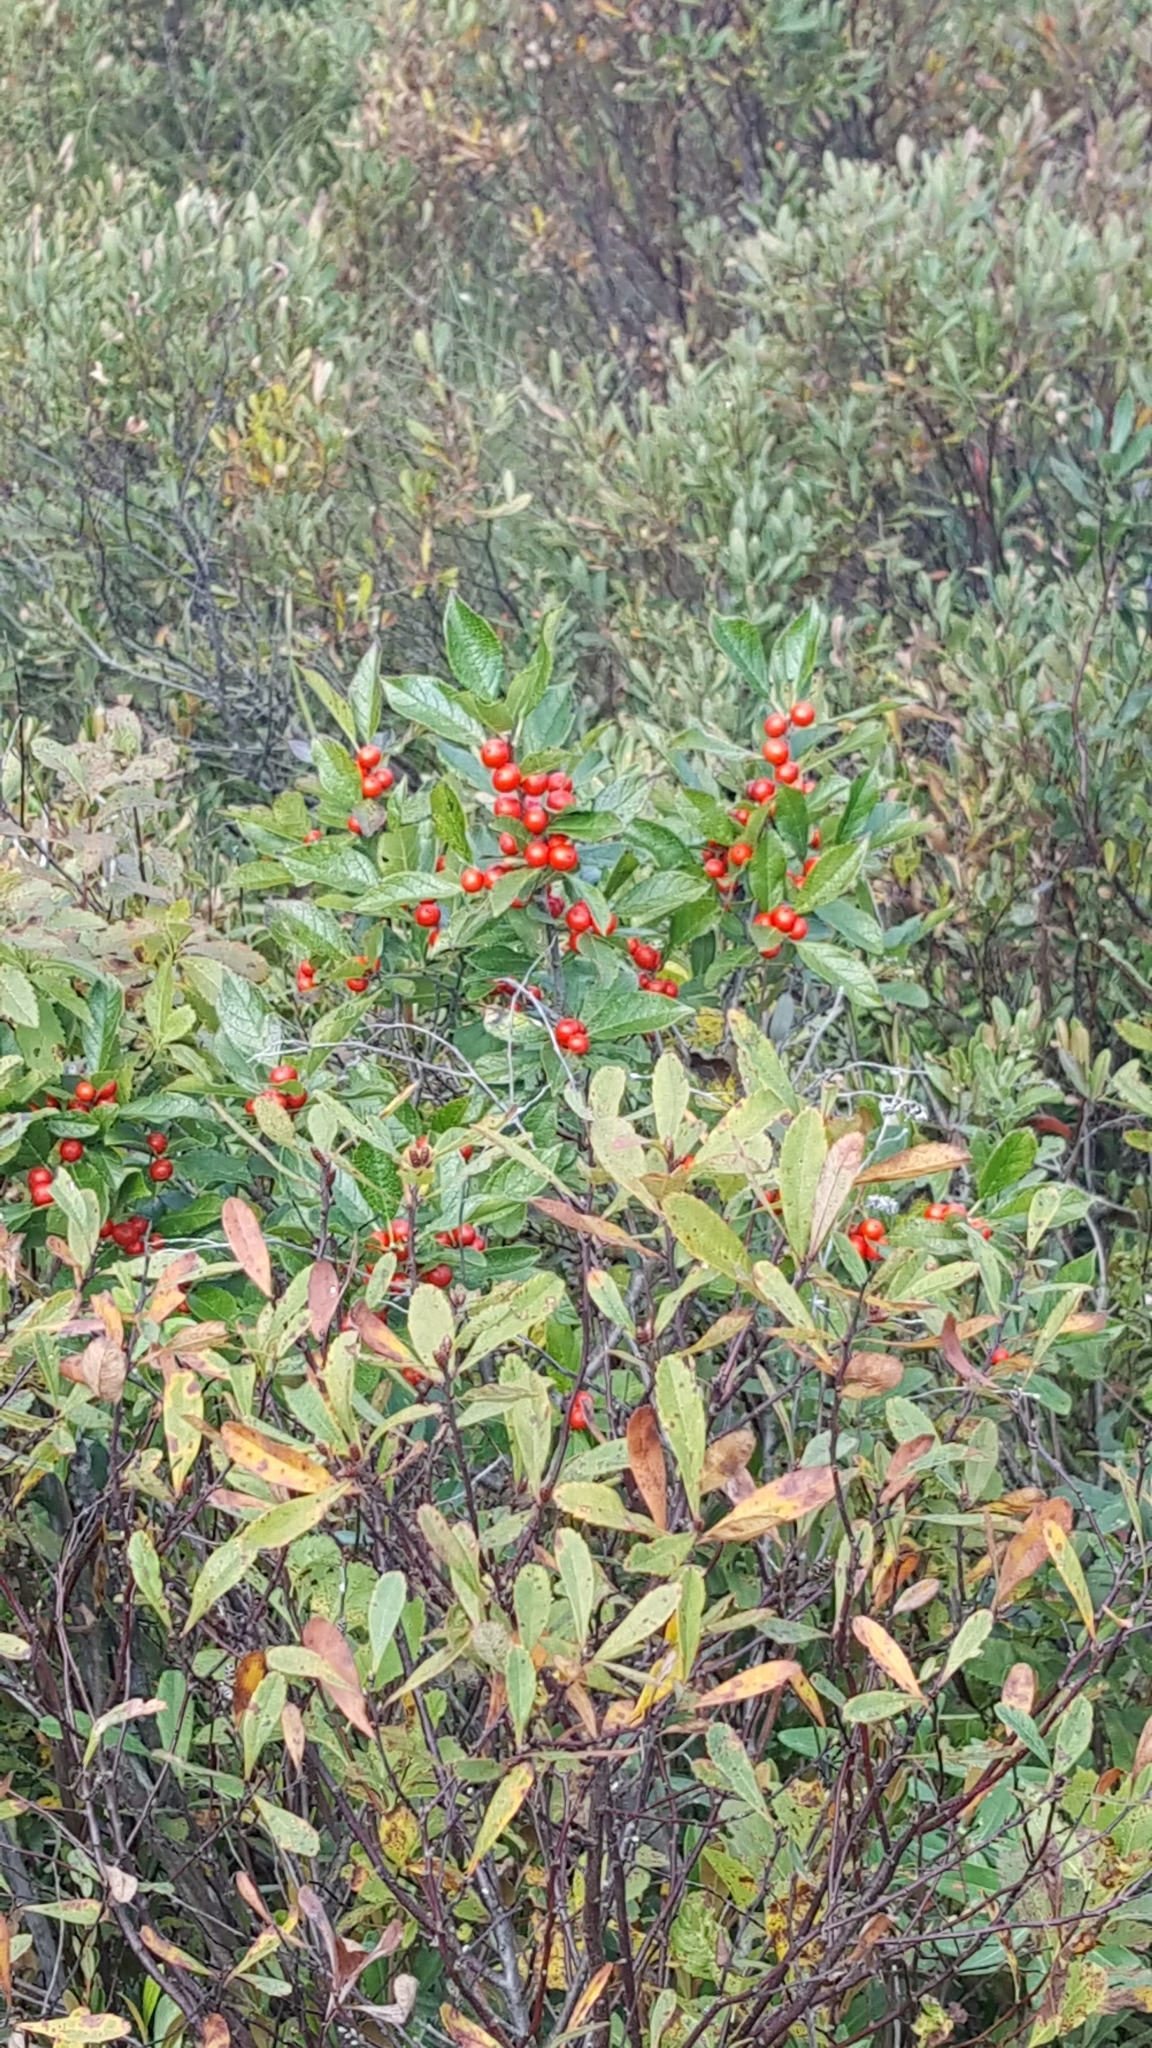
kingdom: Plantae
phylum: Tracheophyta
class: Magnoliopsida
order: Aquifoliales
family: Aquifoliaceae
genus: Ilex
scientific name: Ilex verticillata
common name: Virginia winterberry
